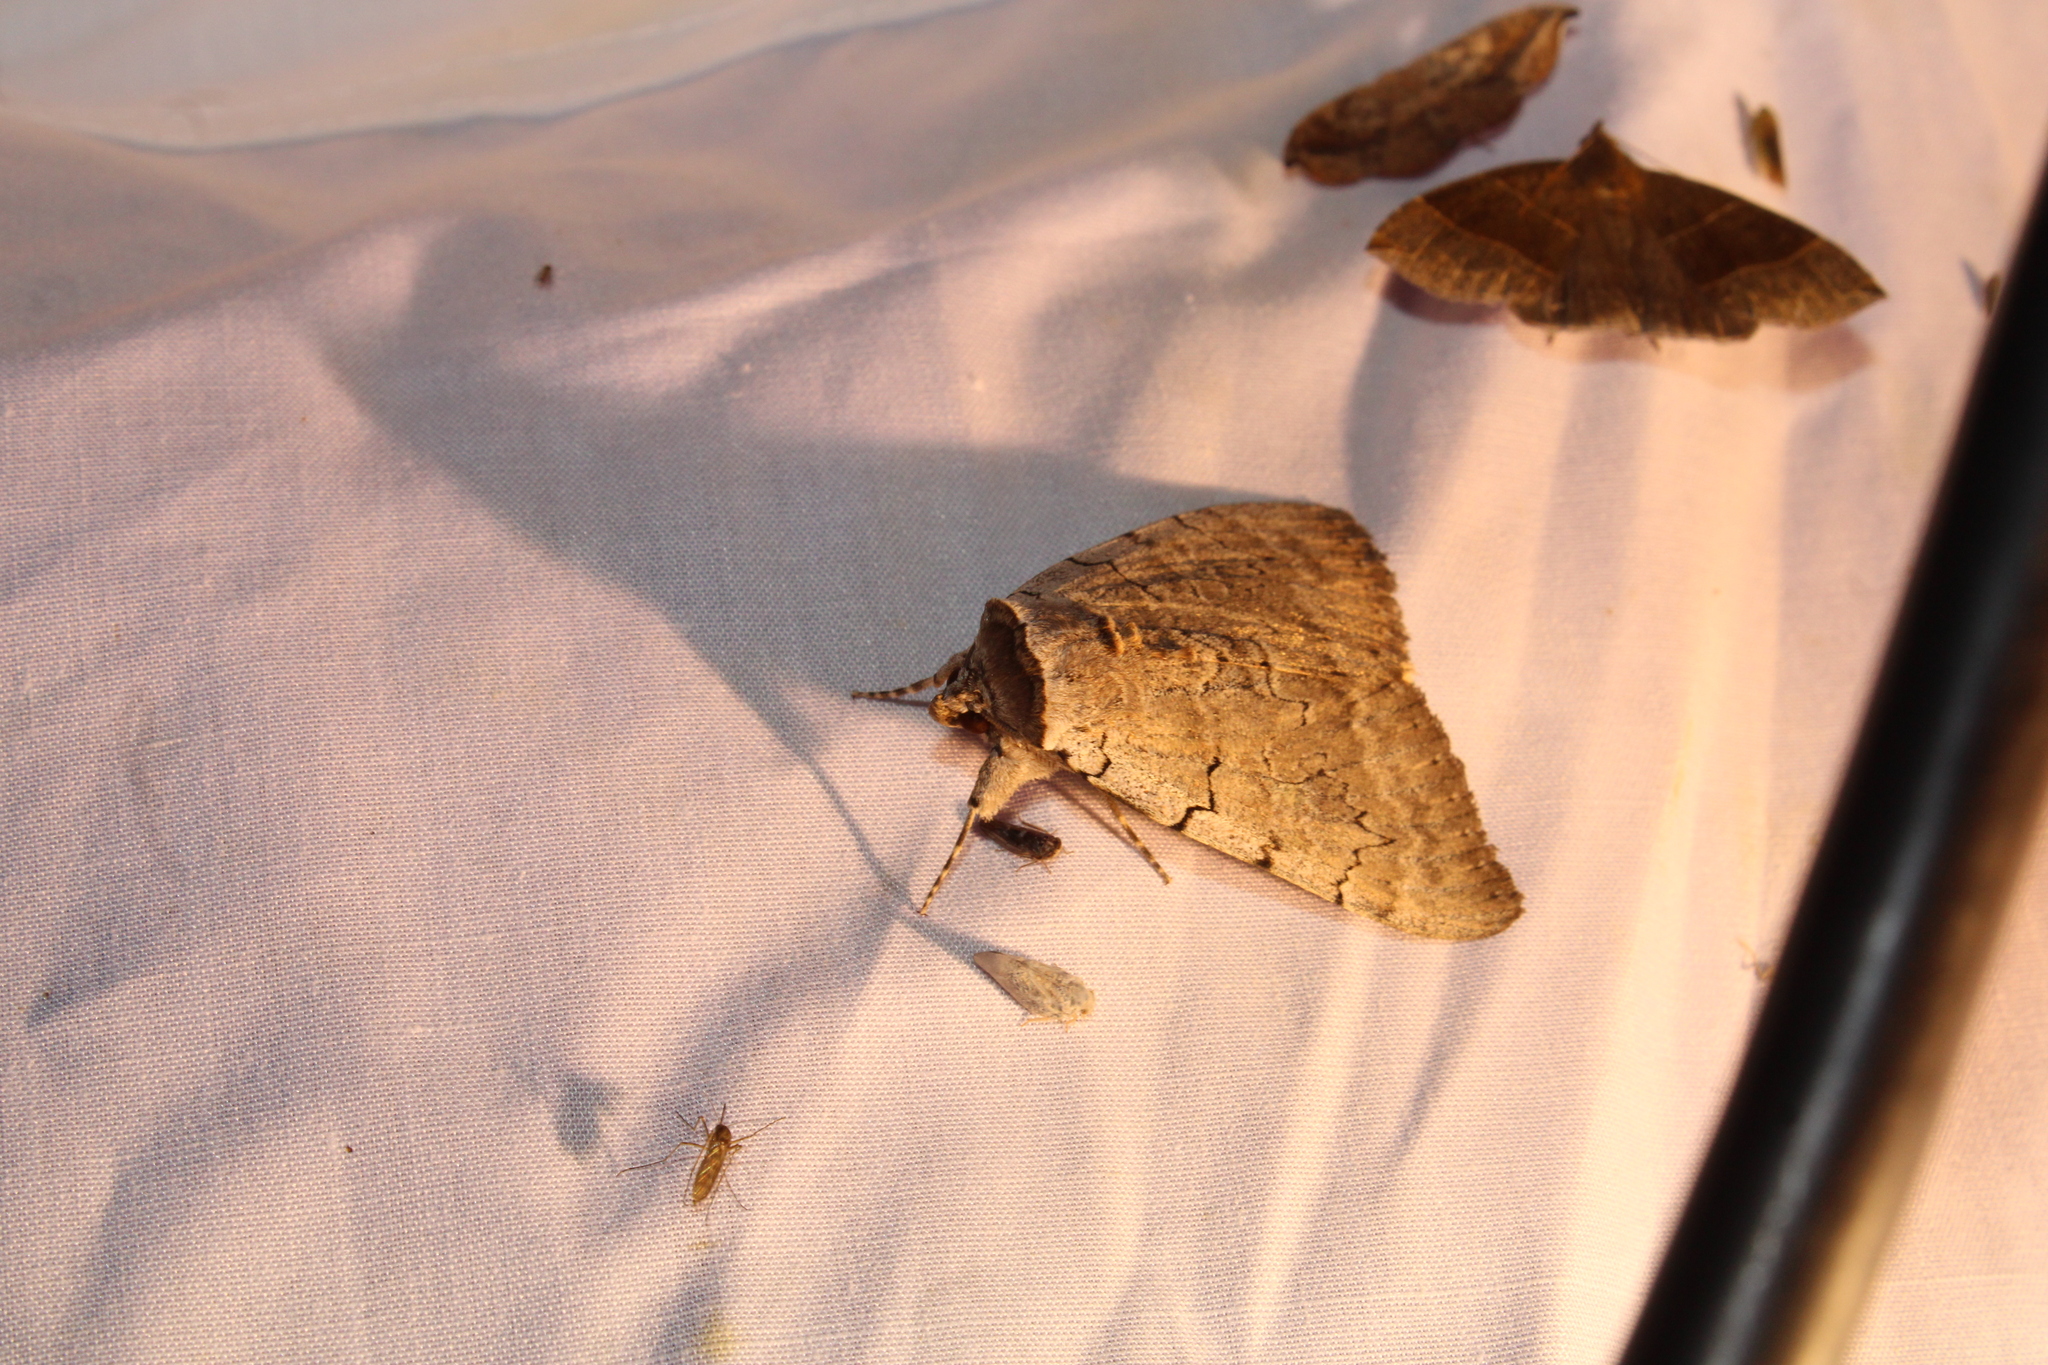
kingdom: Animalia
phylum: Arthropoda
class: Insecta
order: Lepidoptera
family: Erebidae
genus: Catocala
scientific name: Catocala concumbens
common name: Pink underwing
